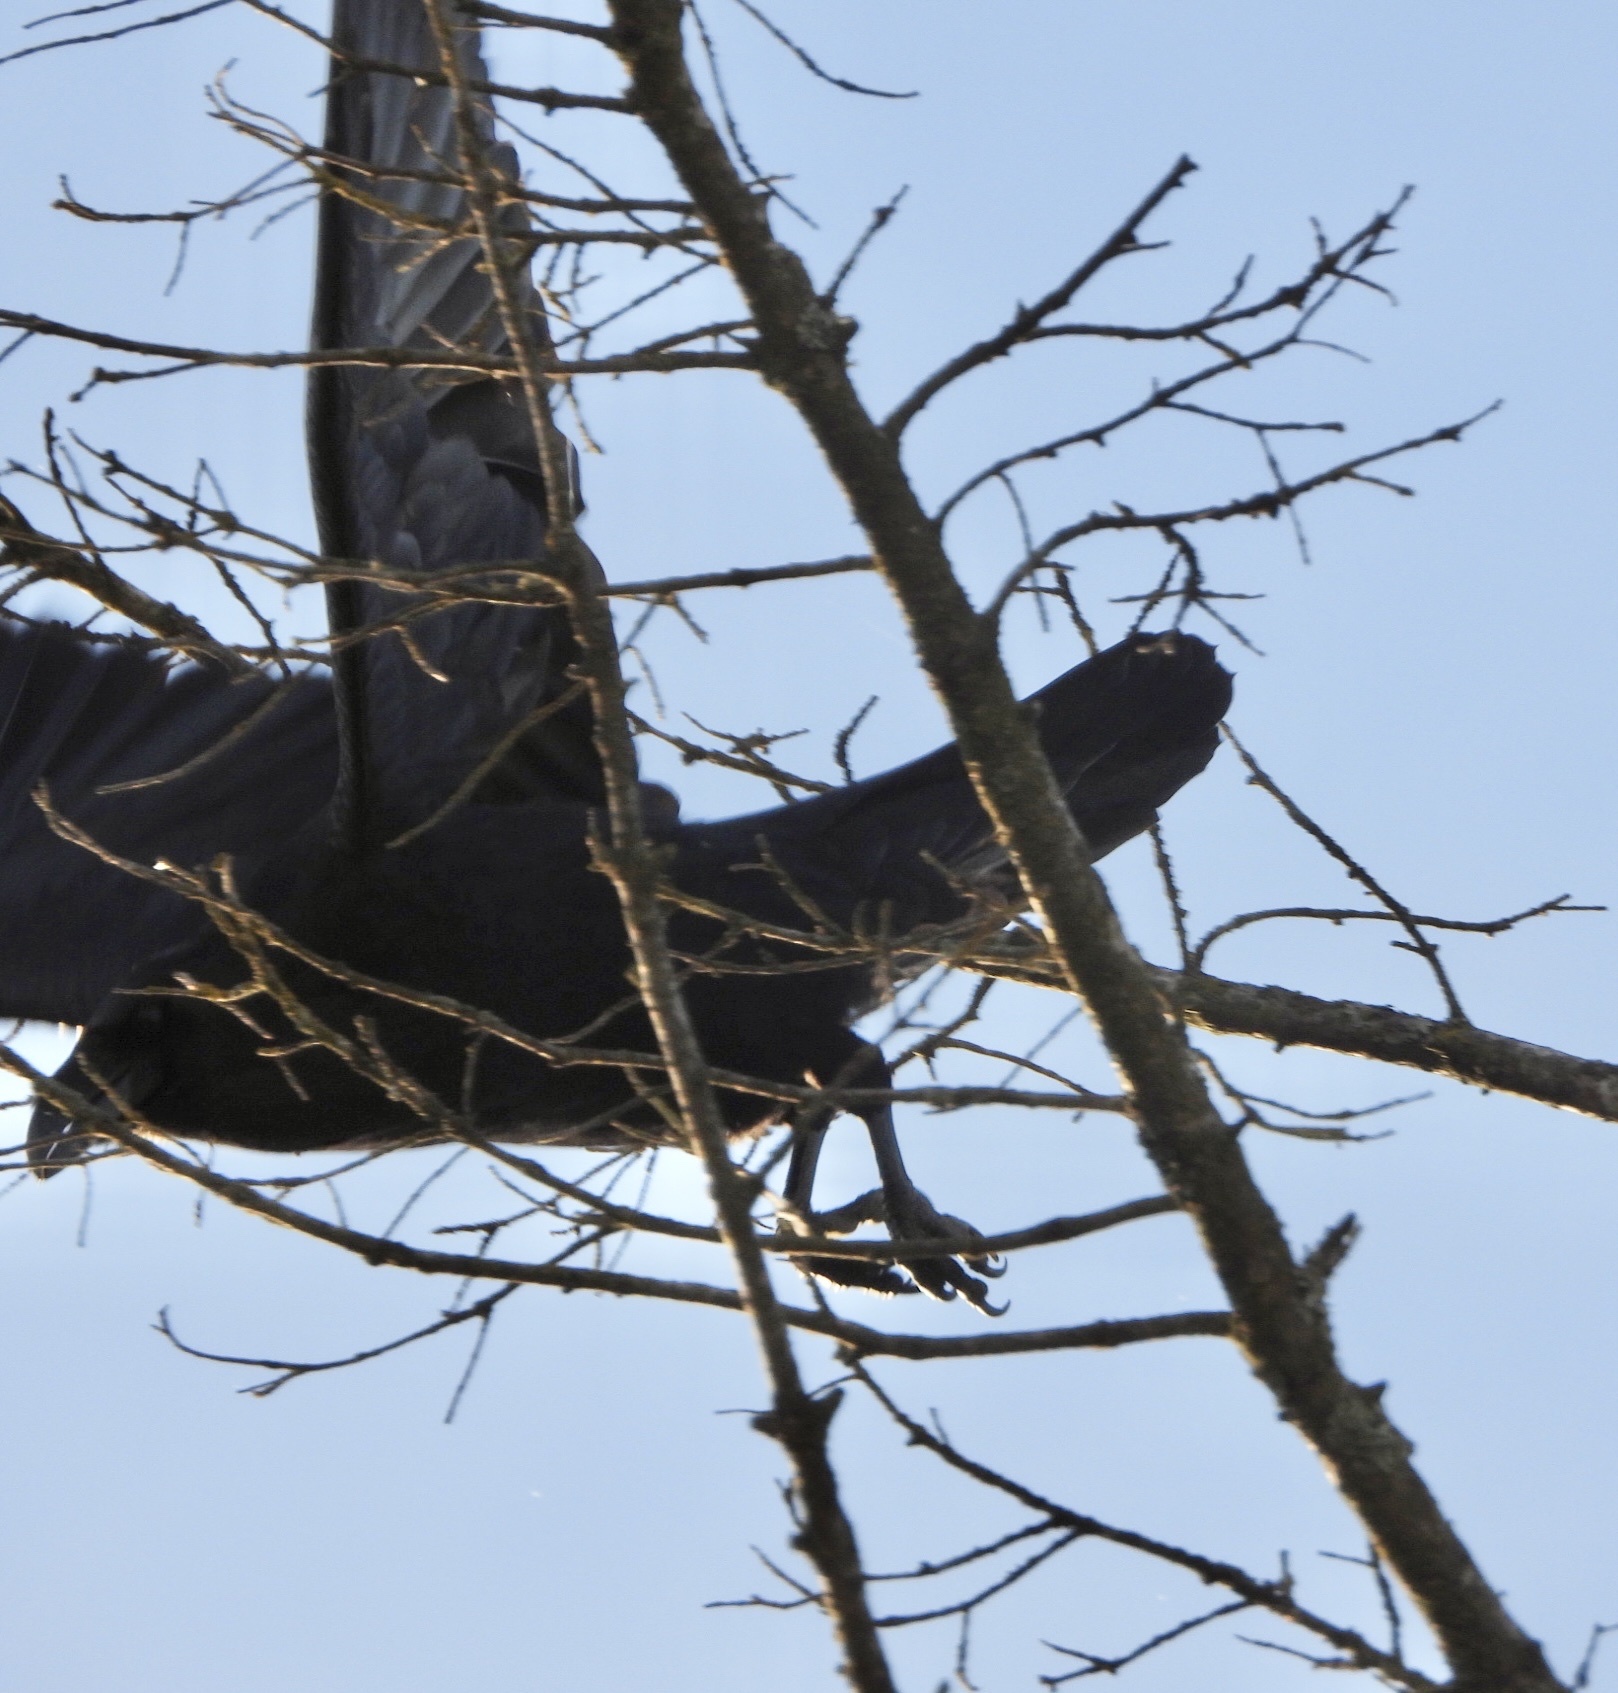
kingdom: Animalia
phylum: Chordata
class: Aves
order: Passeriformes
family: Corvidae
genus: Corvus
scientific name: Corvus corax
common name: Common raven
